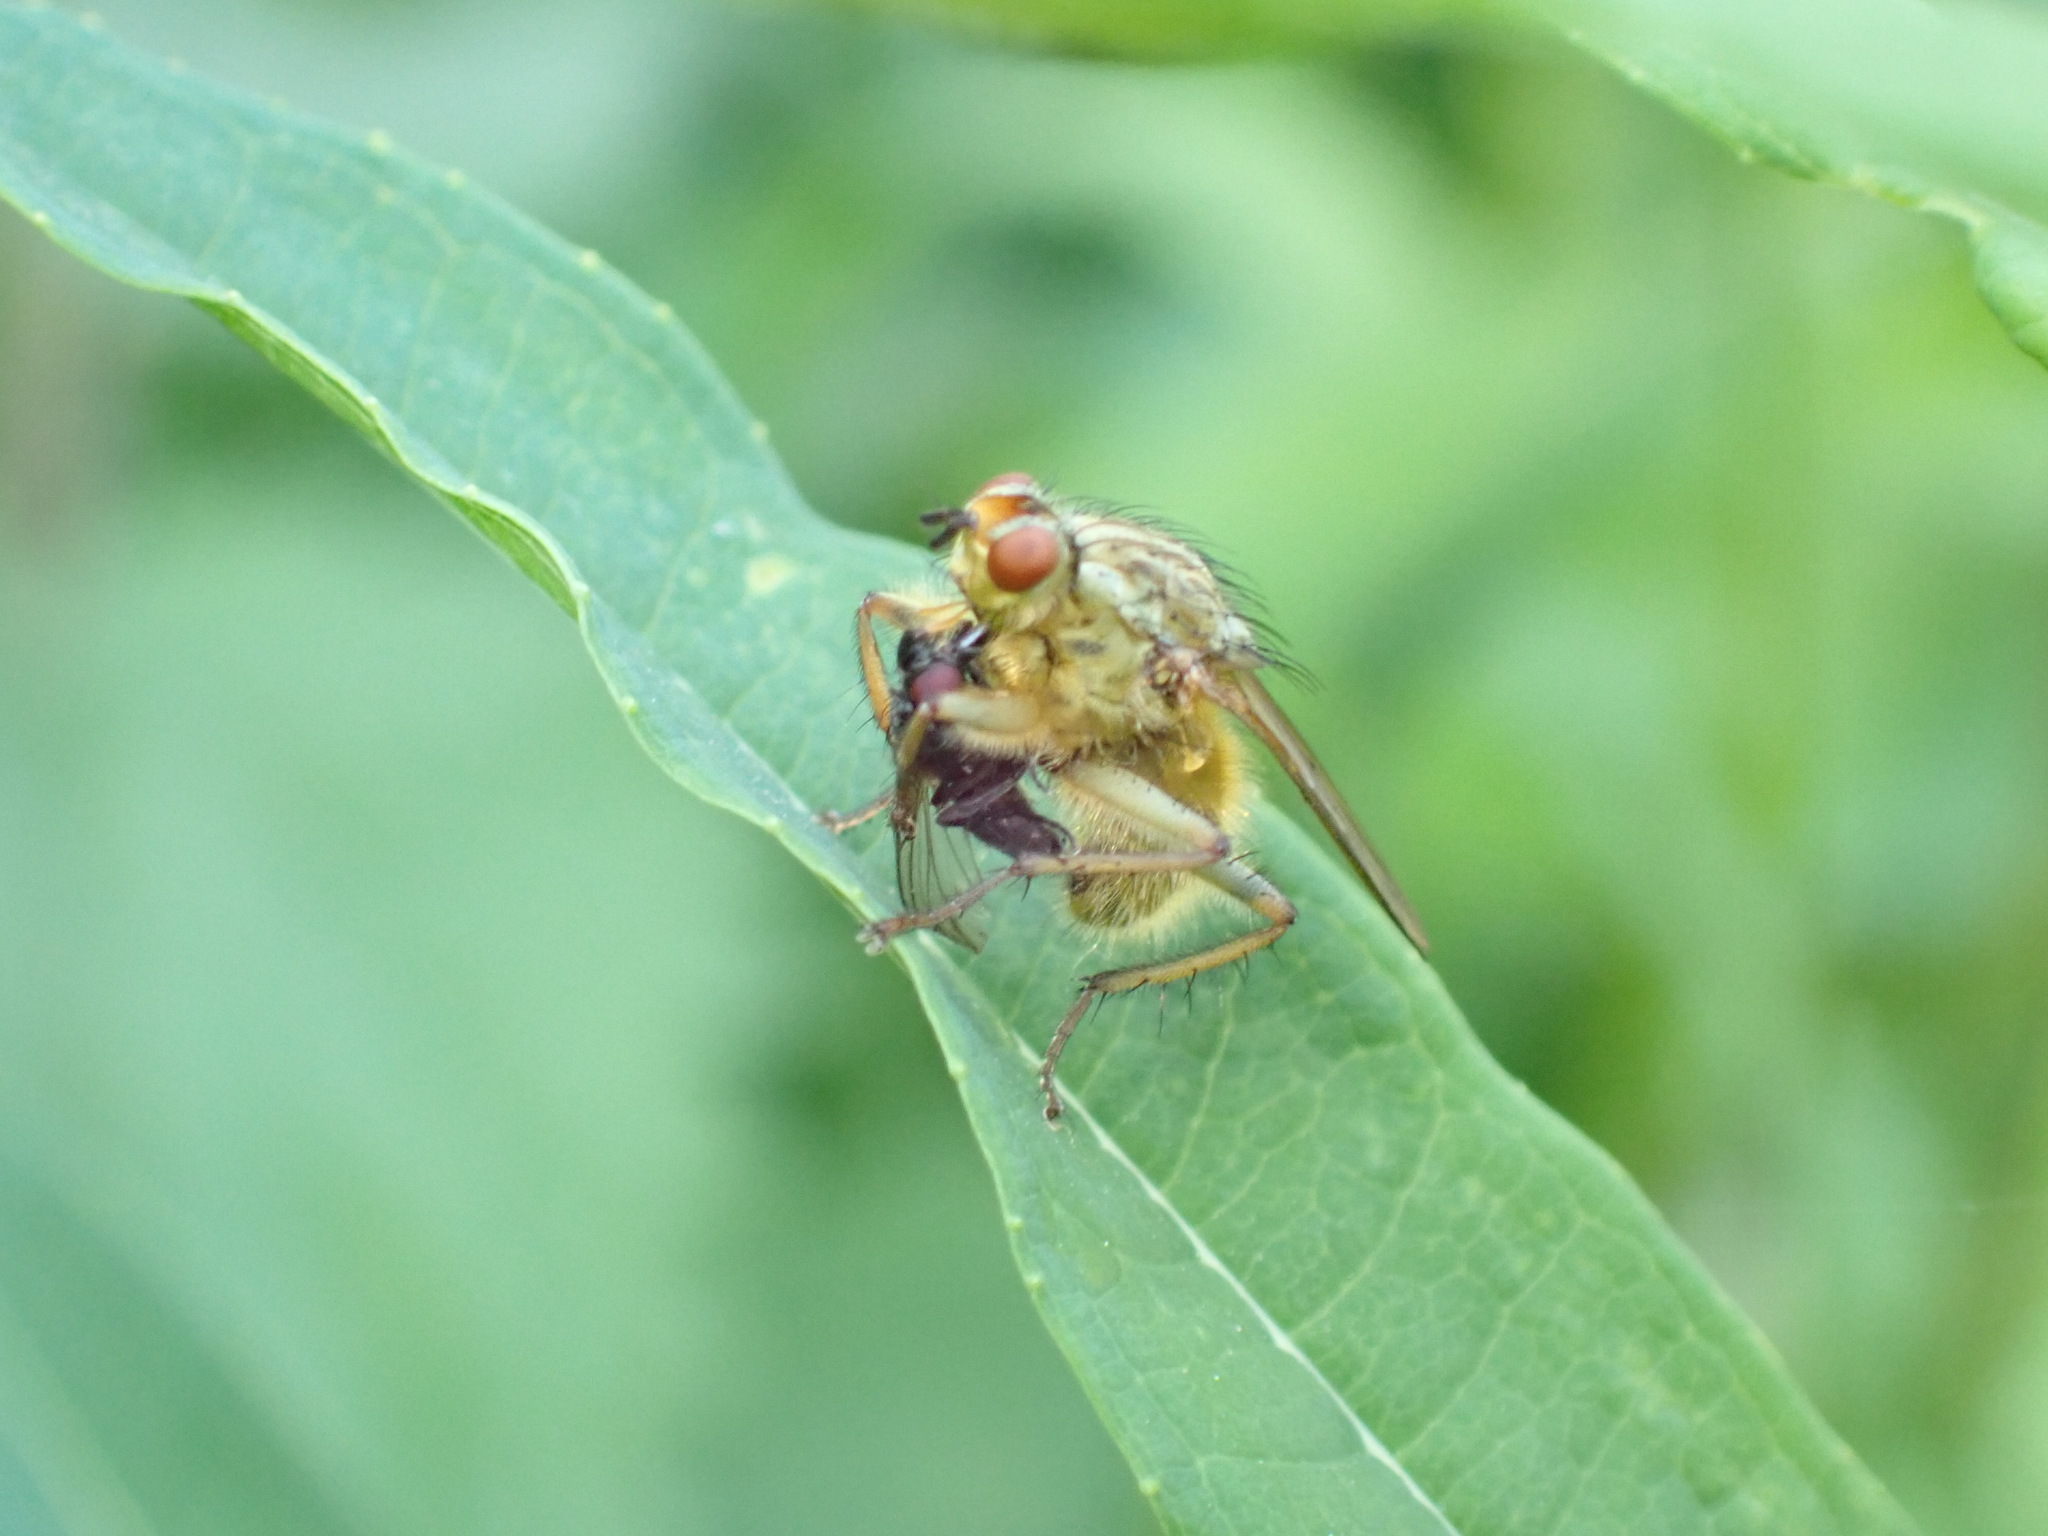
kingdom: Animalia
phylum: Arthropoda
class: Insecta
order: Diptera
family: Scathophagidae
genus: Scathophaga
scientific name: Scathophaga stercoraria
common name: Yellow dung fly
